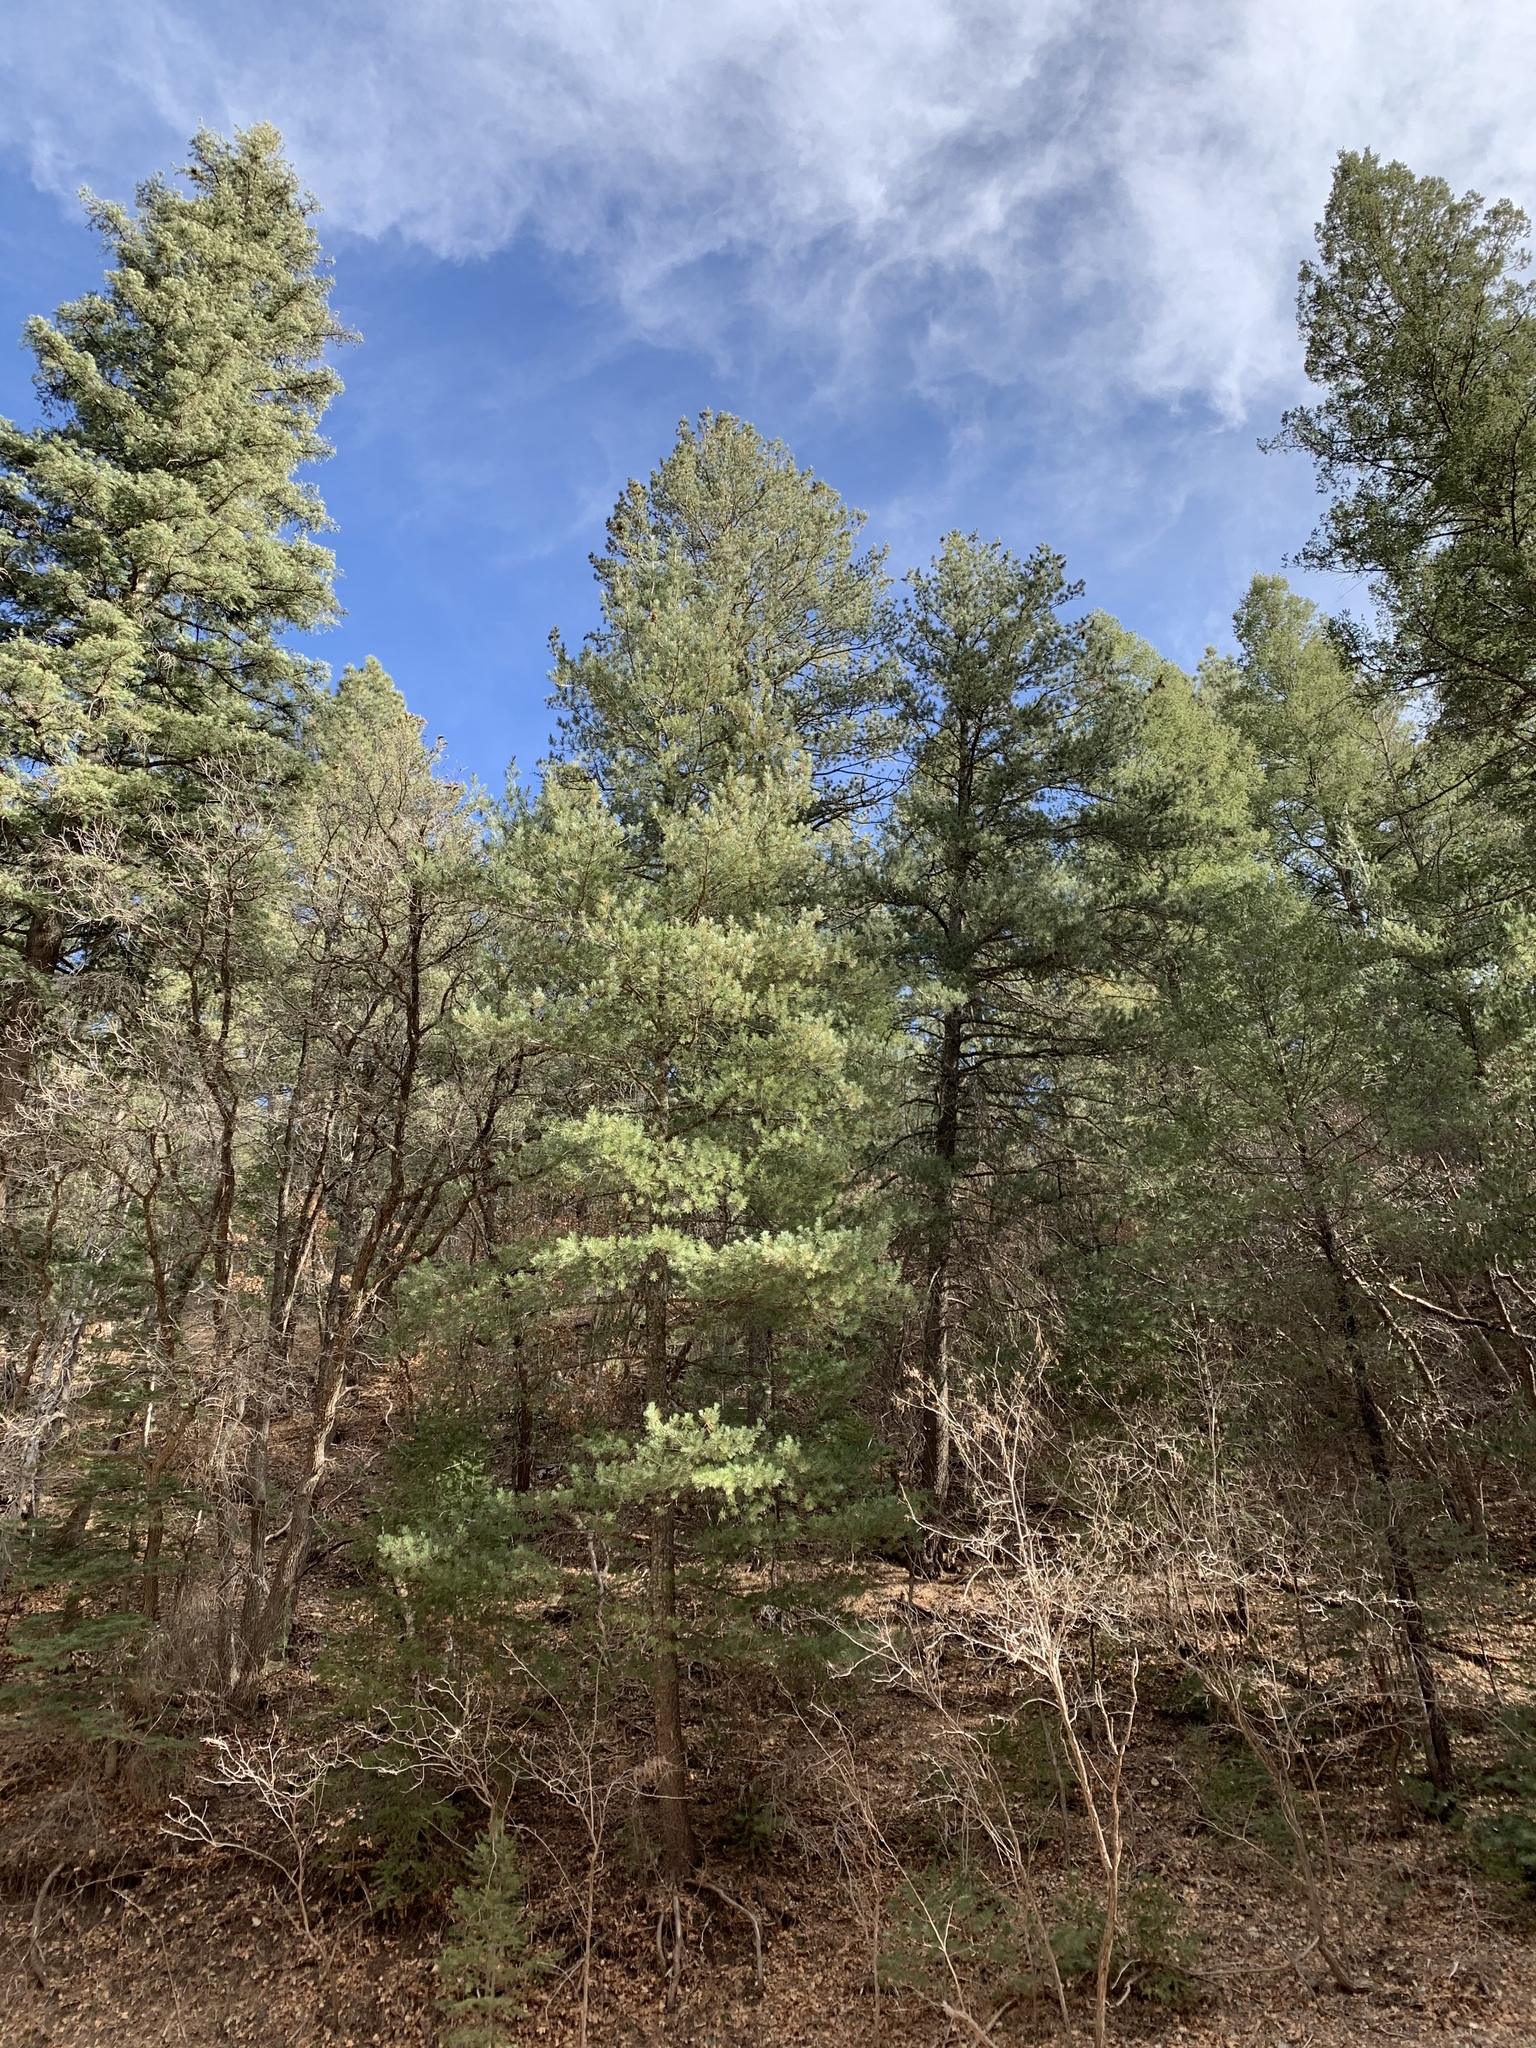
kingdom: Plantae
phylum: Tracheophyta
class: Pinopsida
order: Pinales
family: Pinaceae
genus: Pinus
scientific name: Pinus strobiformis
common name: Southwestern white pine
